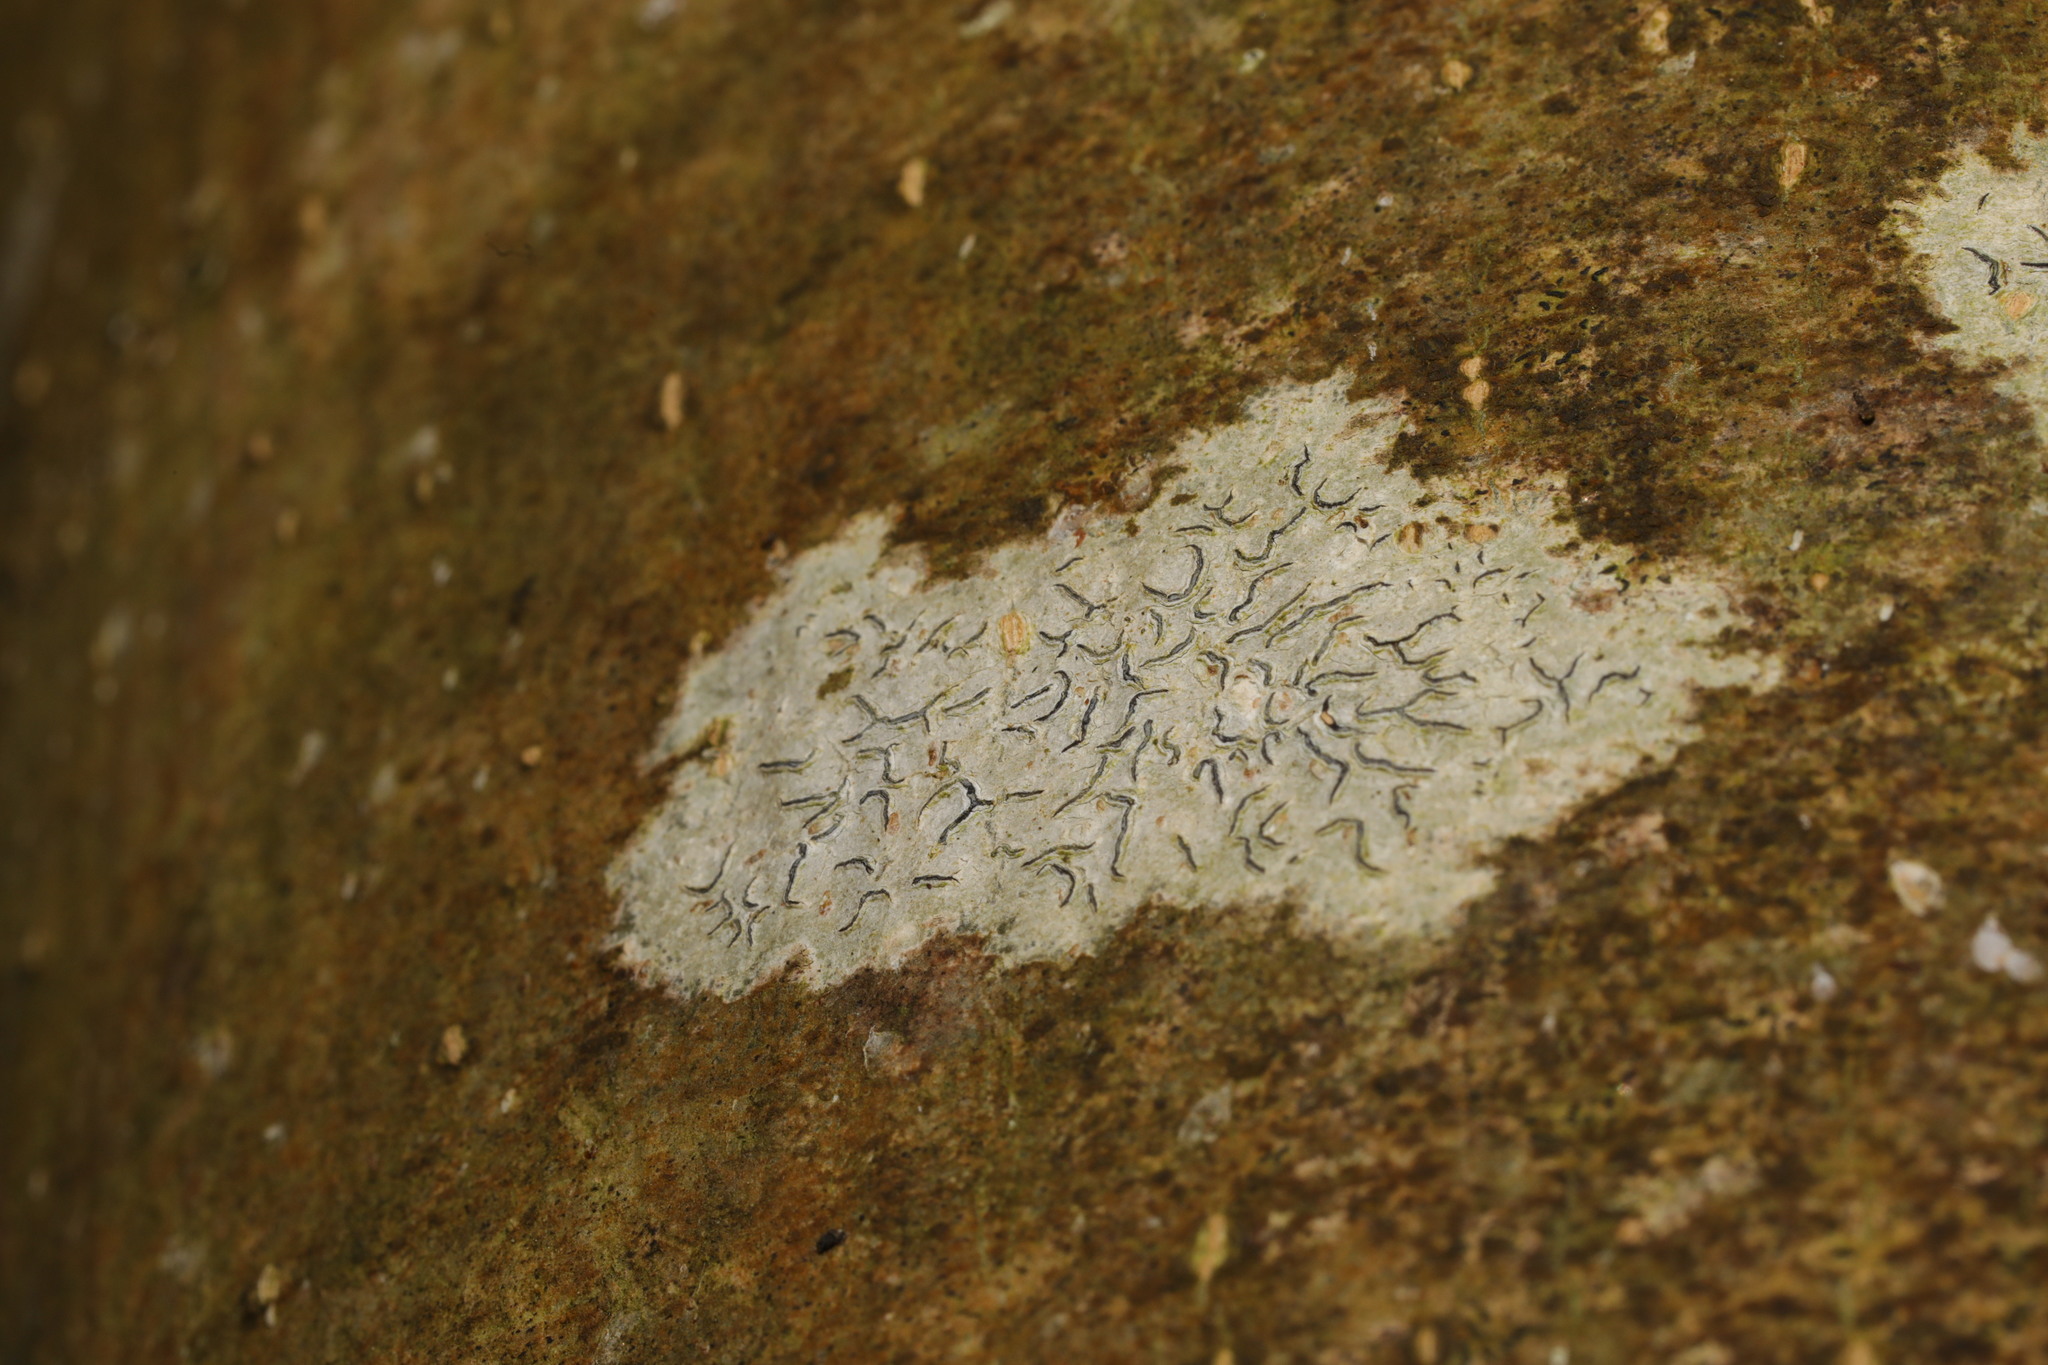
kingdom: Fungi
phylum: Ascomycota
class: Lecanoromycetes
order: Ostropales
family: Graphidaceae
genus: Graphis
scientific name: Graphis scripta
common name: Script lichen
